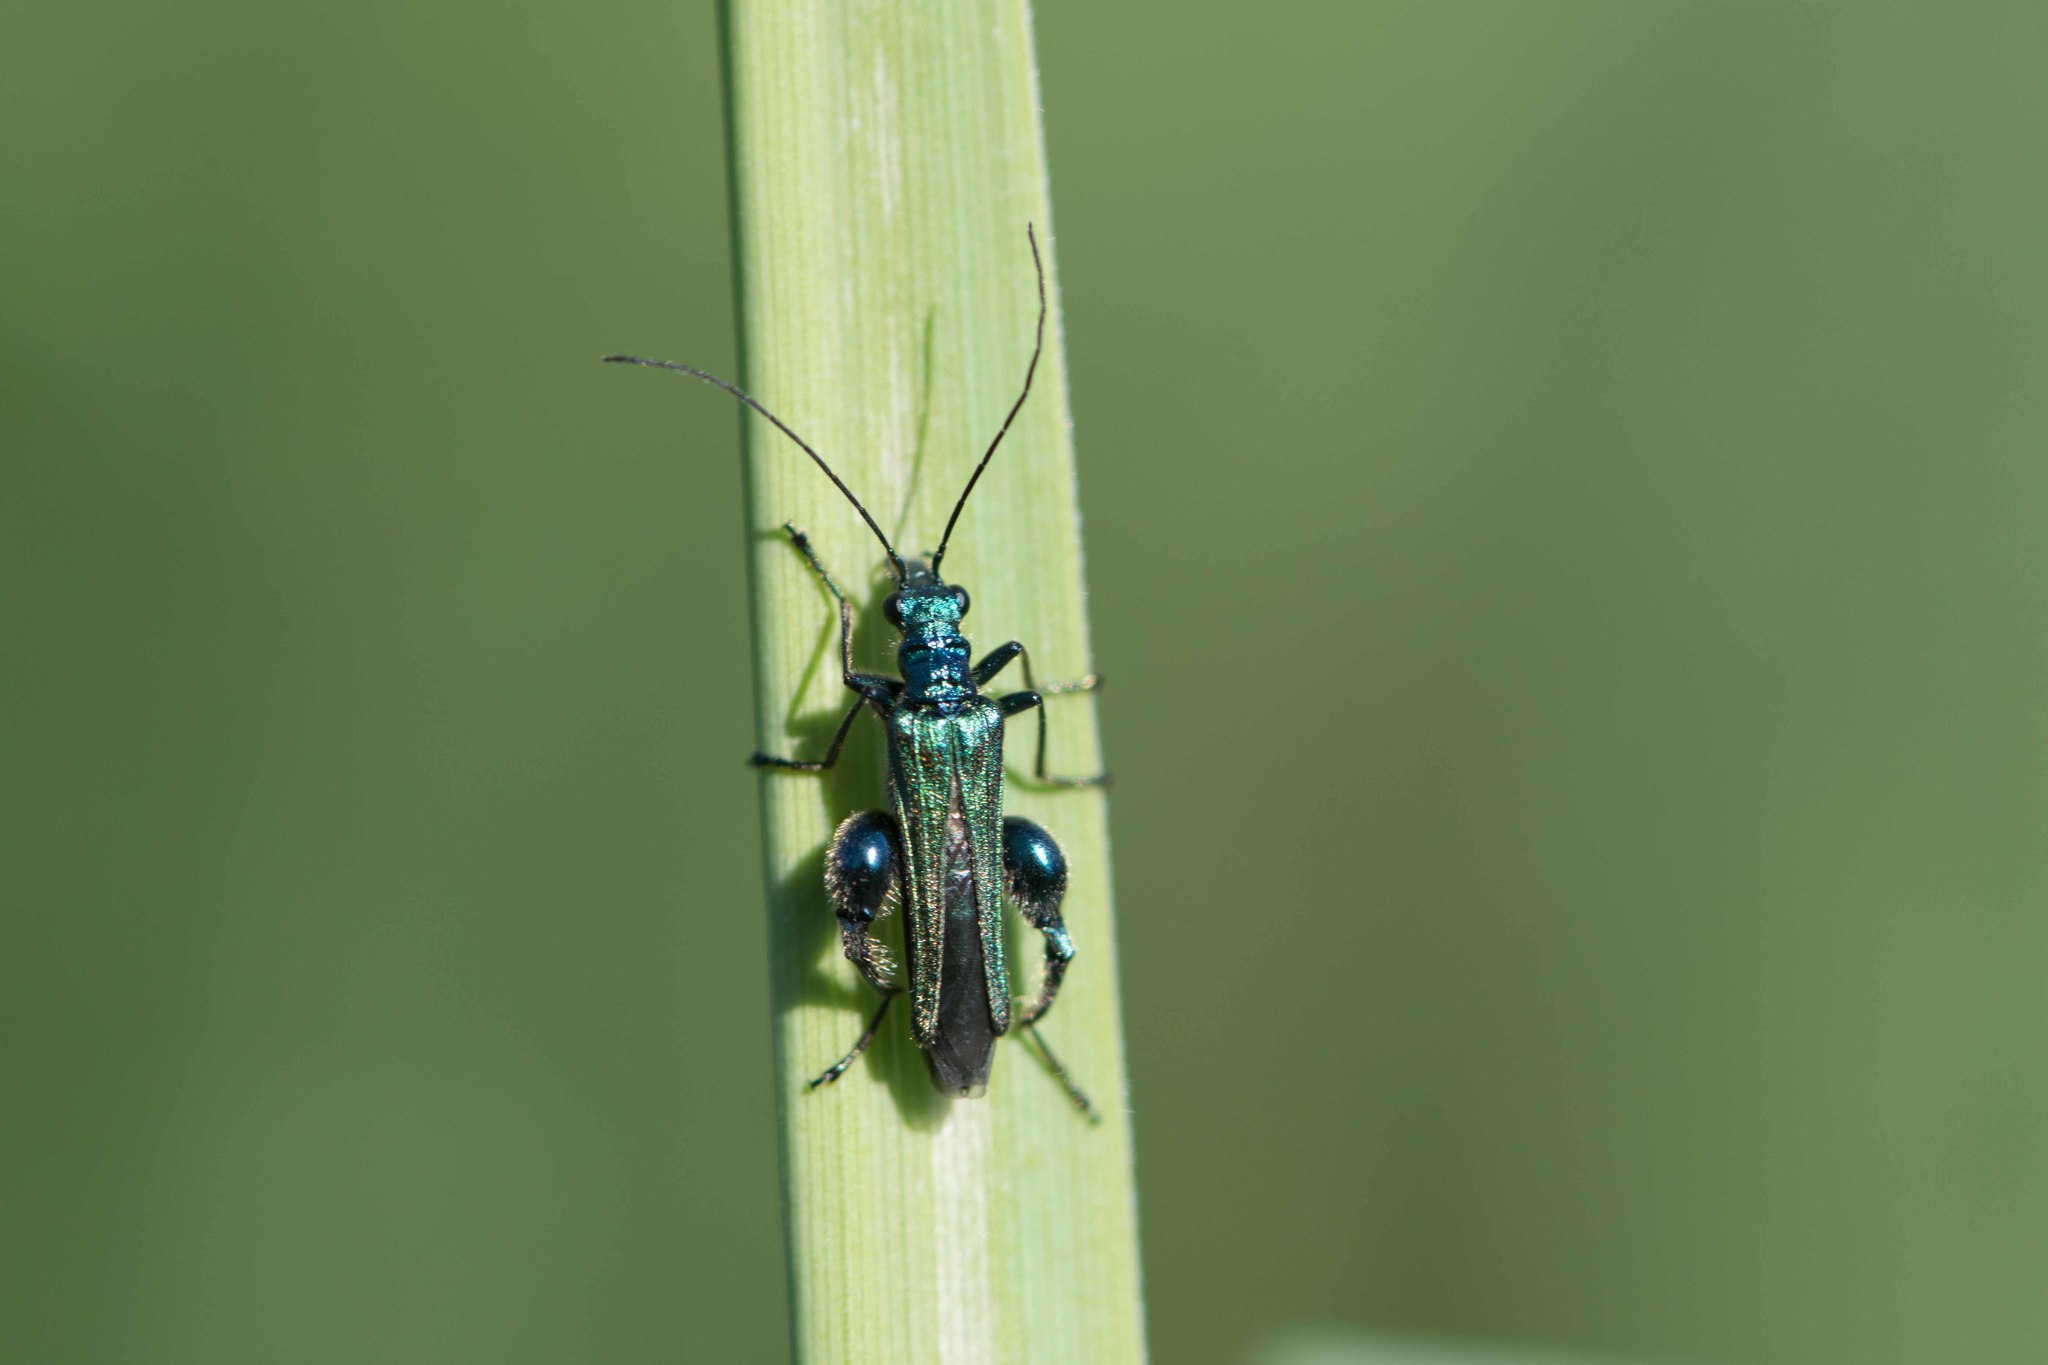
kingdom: Animalia
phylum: Arthropoda
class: Insecta
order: Coleoptera
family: Oedemeridae
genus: Oedemera
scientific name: Oedemera nobilis
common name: Swollen-thighed beetle
